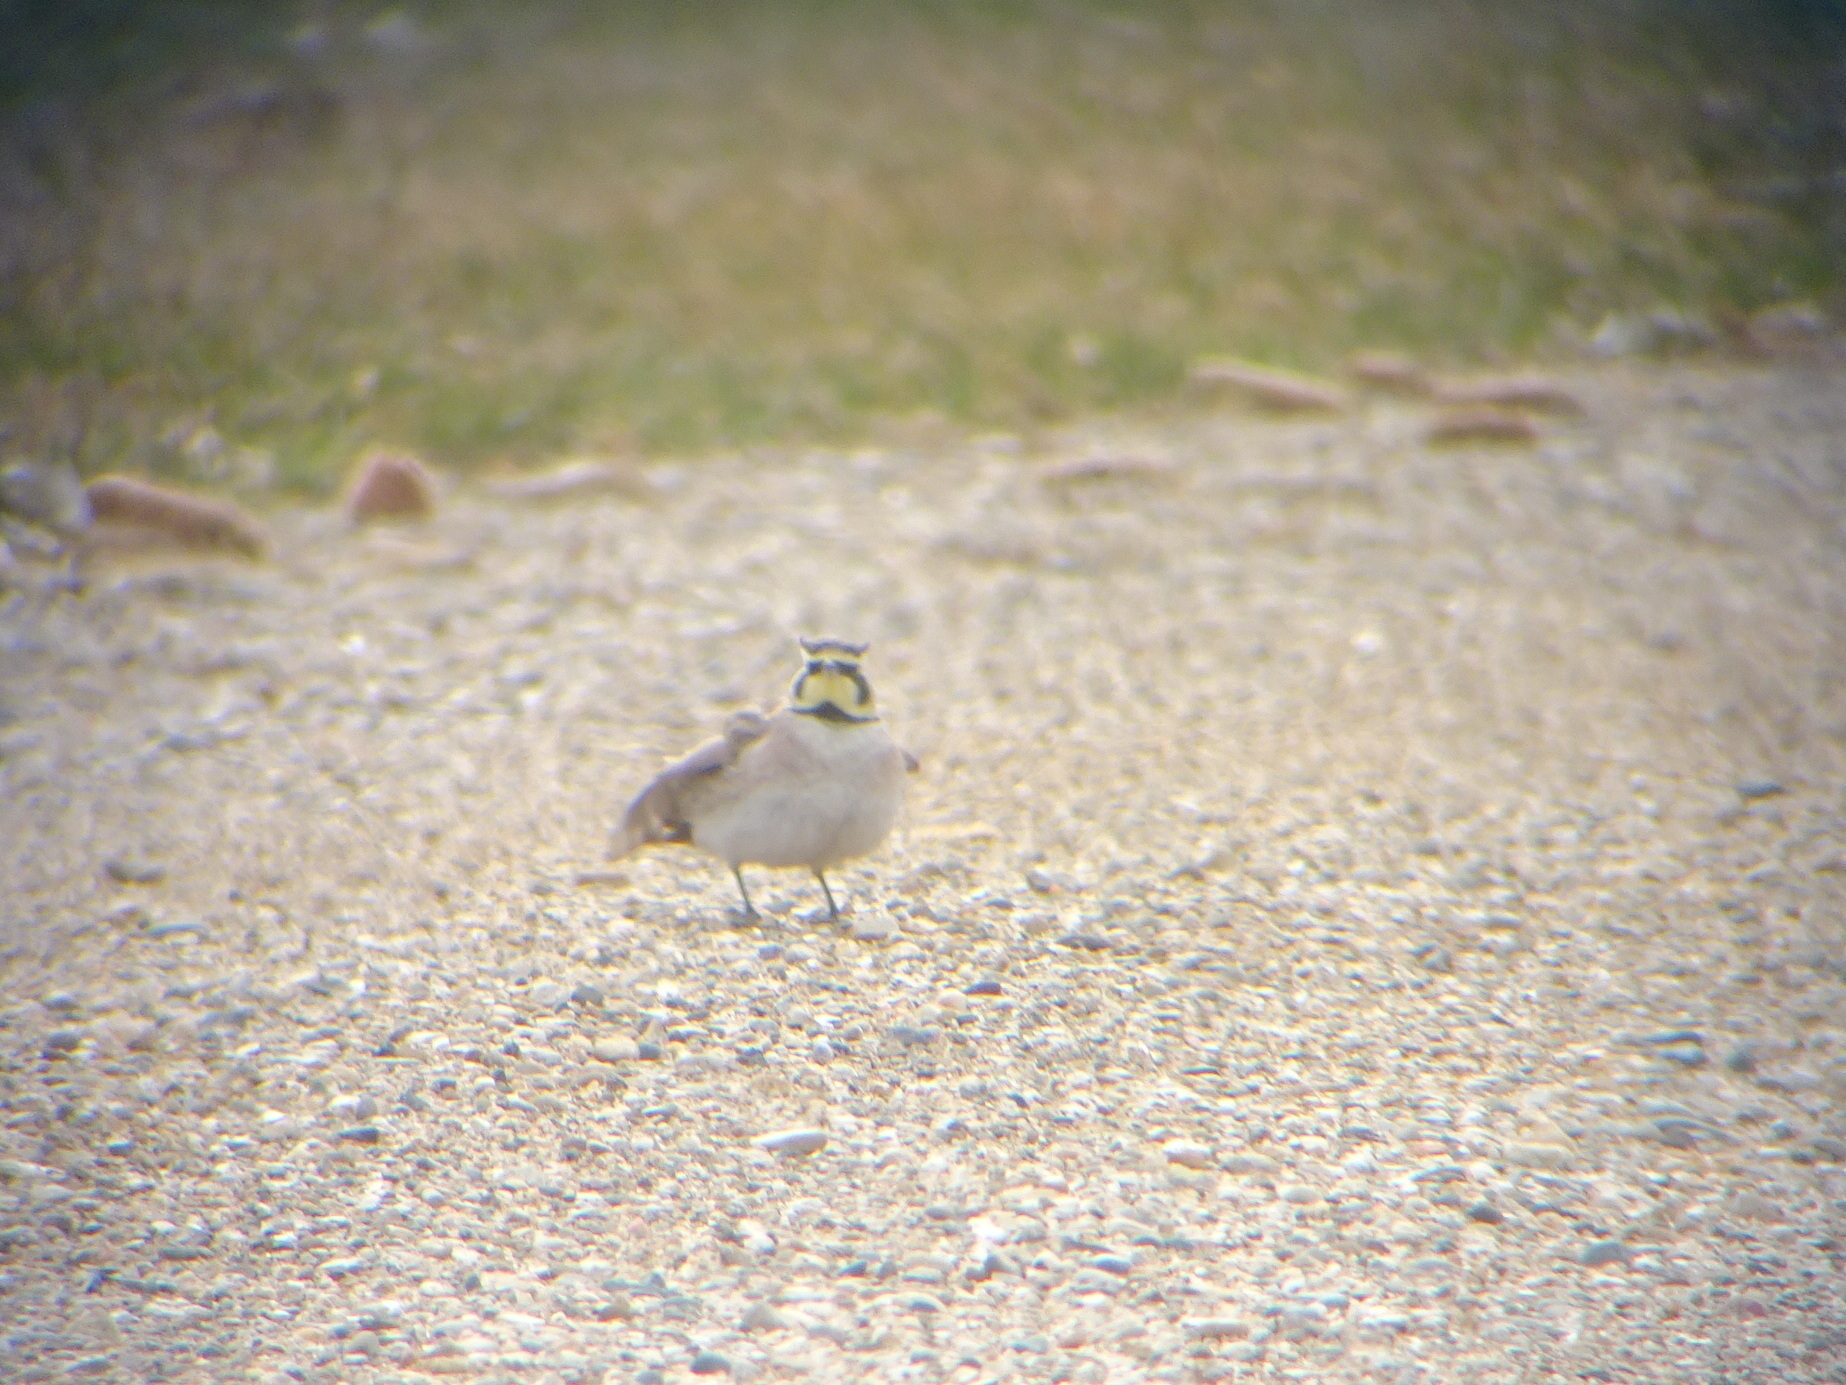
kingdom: Animalia
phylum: Chordata
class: Aves
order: Passeriformes
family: Alaudidae
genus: Eremophila
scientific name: Eremophila alpestris
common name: Horned lark
